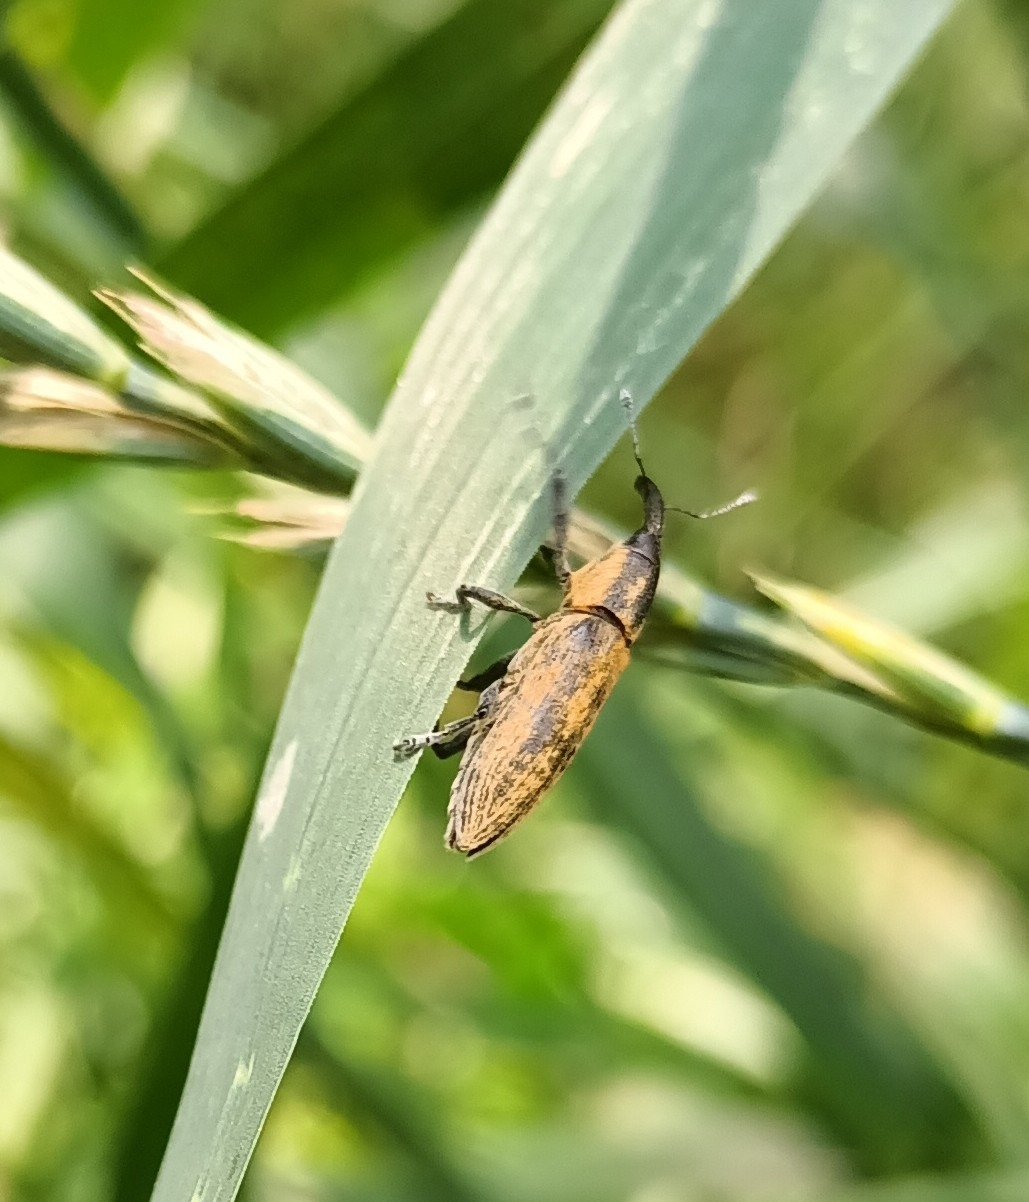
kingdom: Animalia
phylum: Arthropoda
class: Insecta
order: Coleoptera
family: Curculionidae
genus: Lixus
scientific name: Lixus fasciculatus
